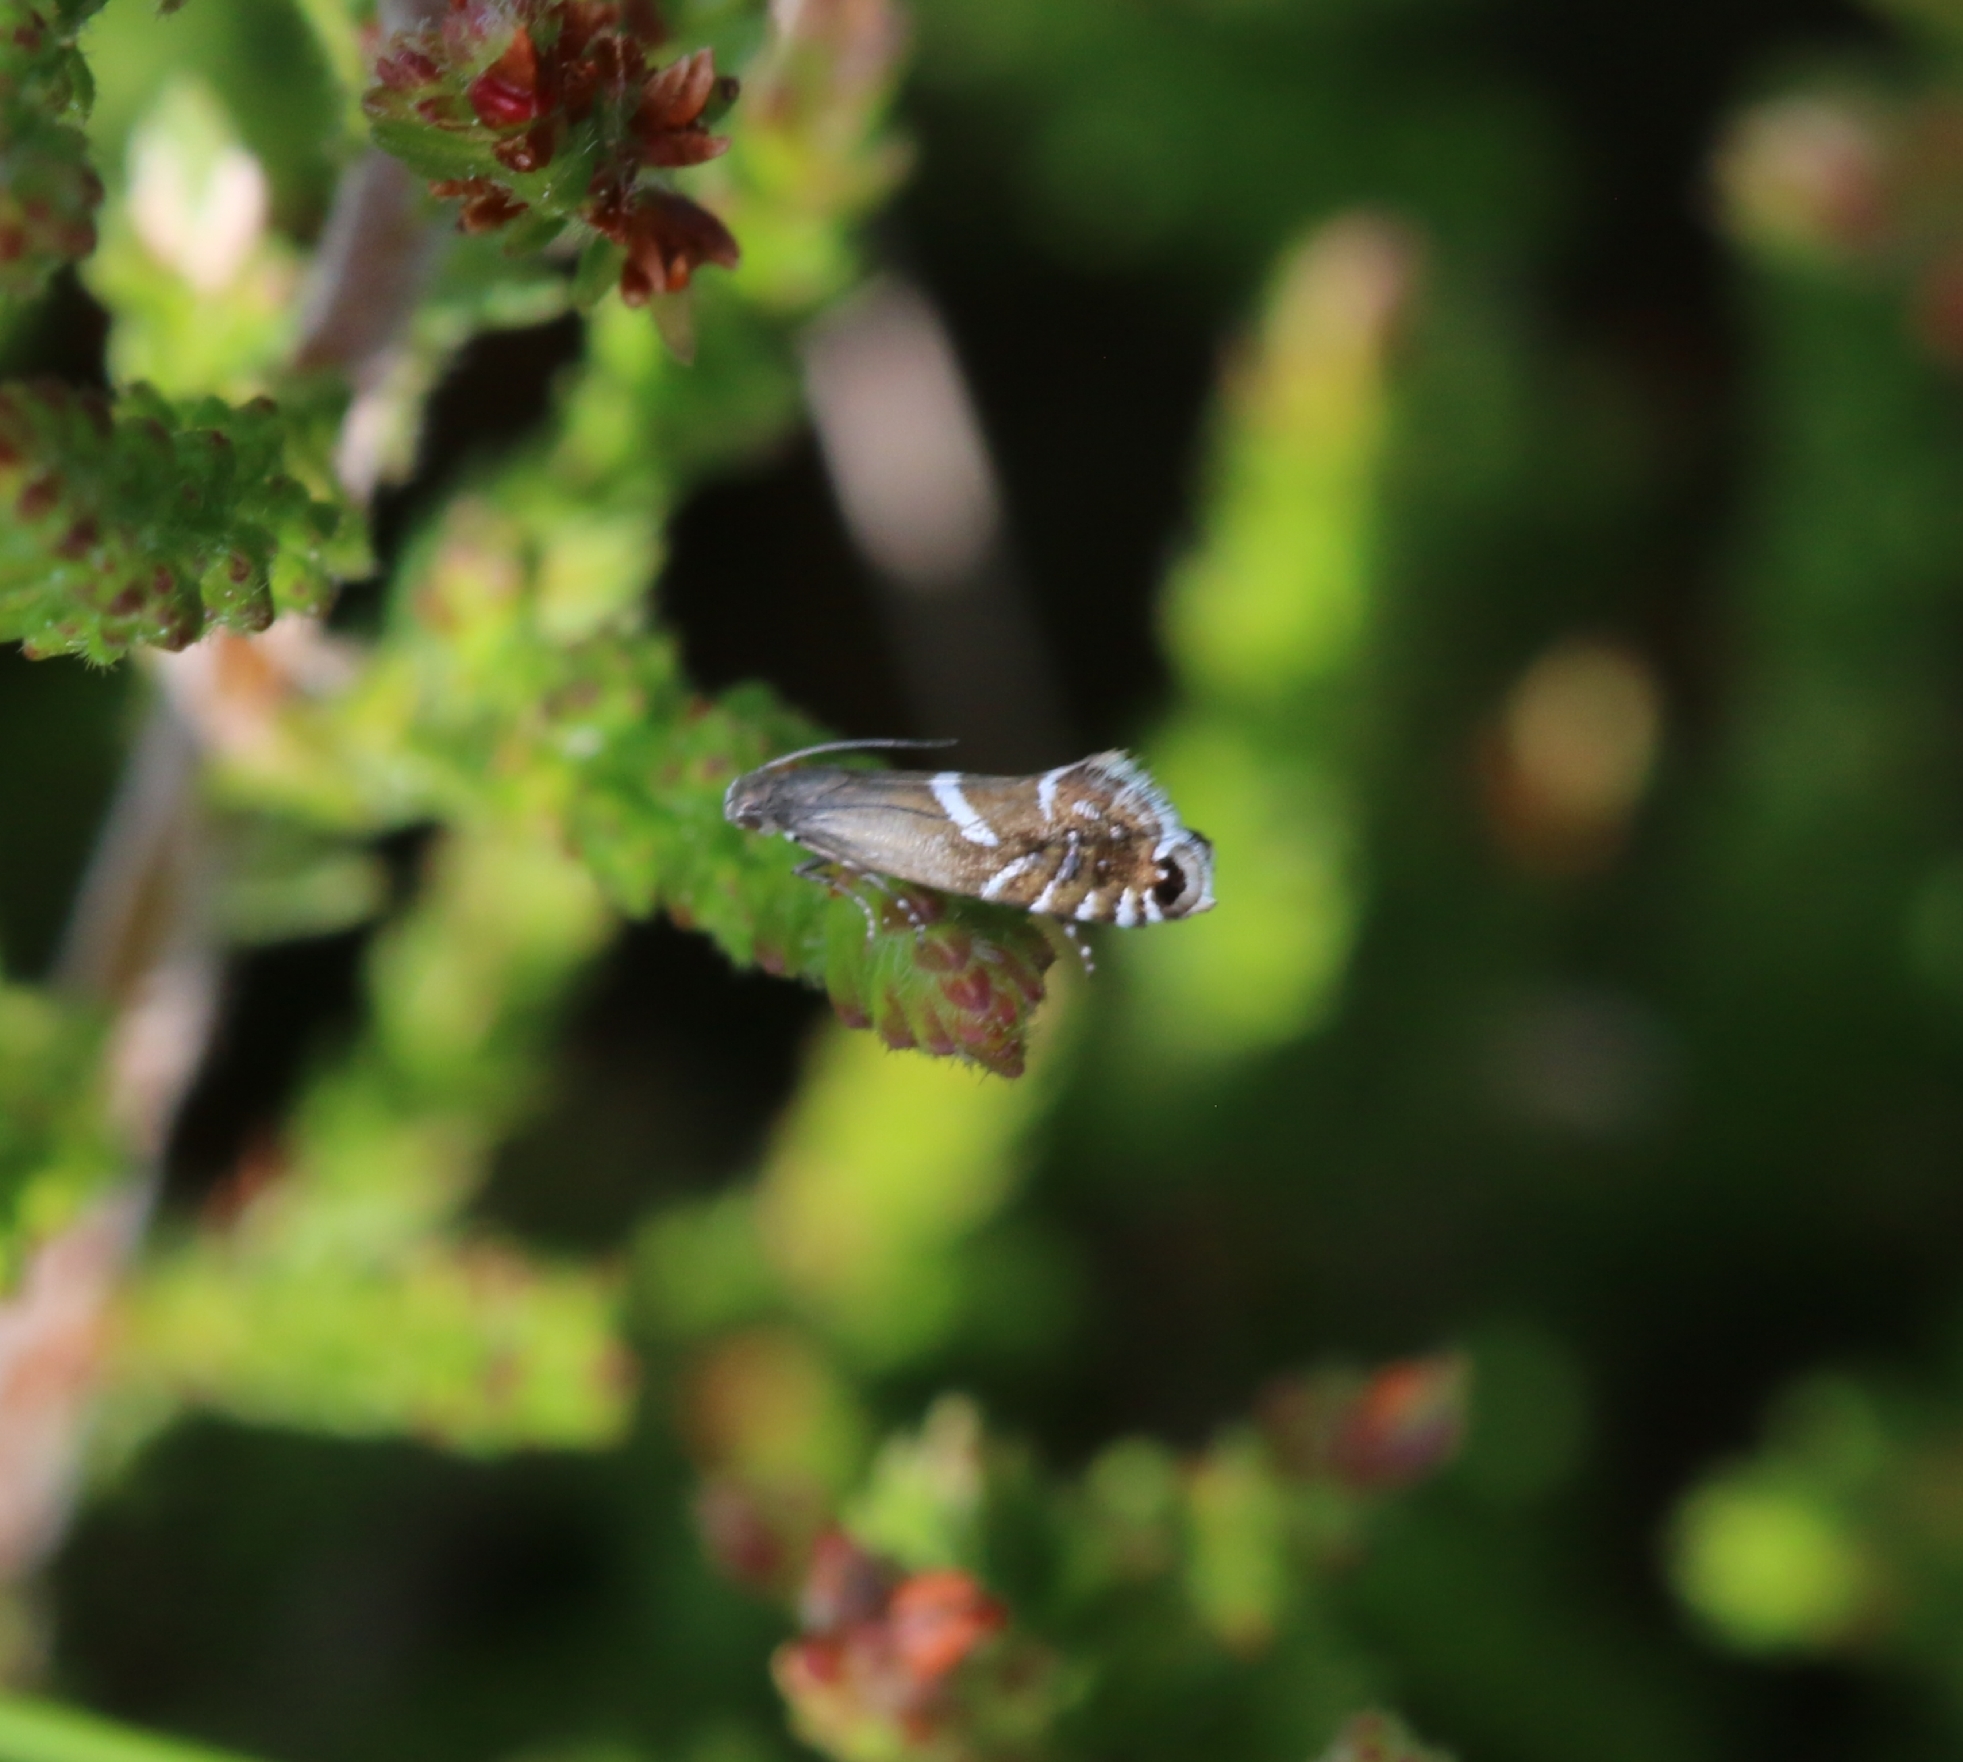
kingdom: Animalia
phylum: Arthropoda
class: Insecta
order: Lepidoptera
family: Glyphipterigidae
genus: Glyphipterix
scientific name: Glyphipterix forsterella
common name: Sedge fanner
